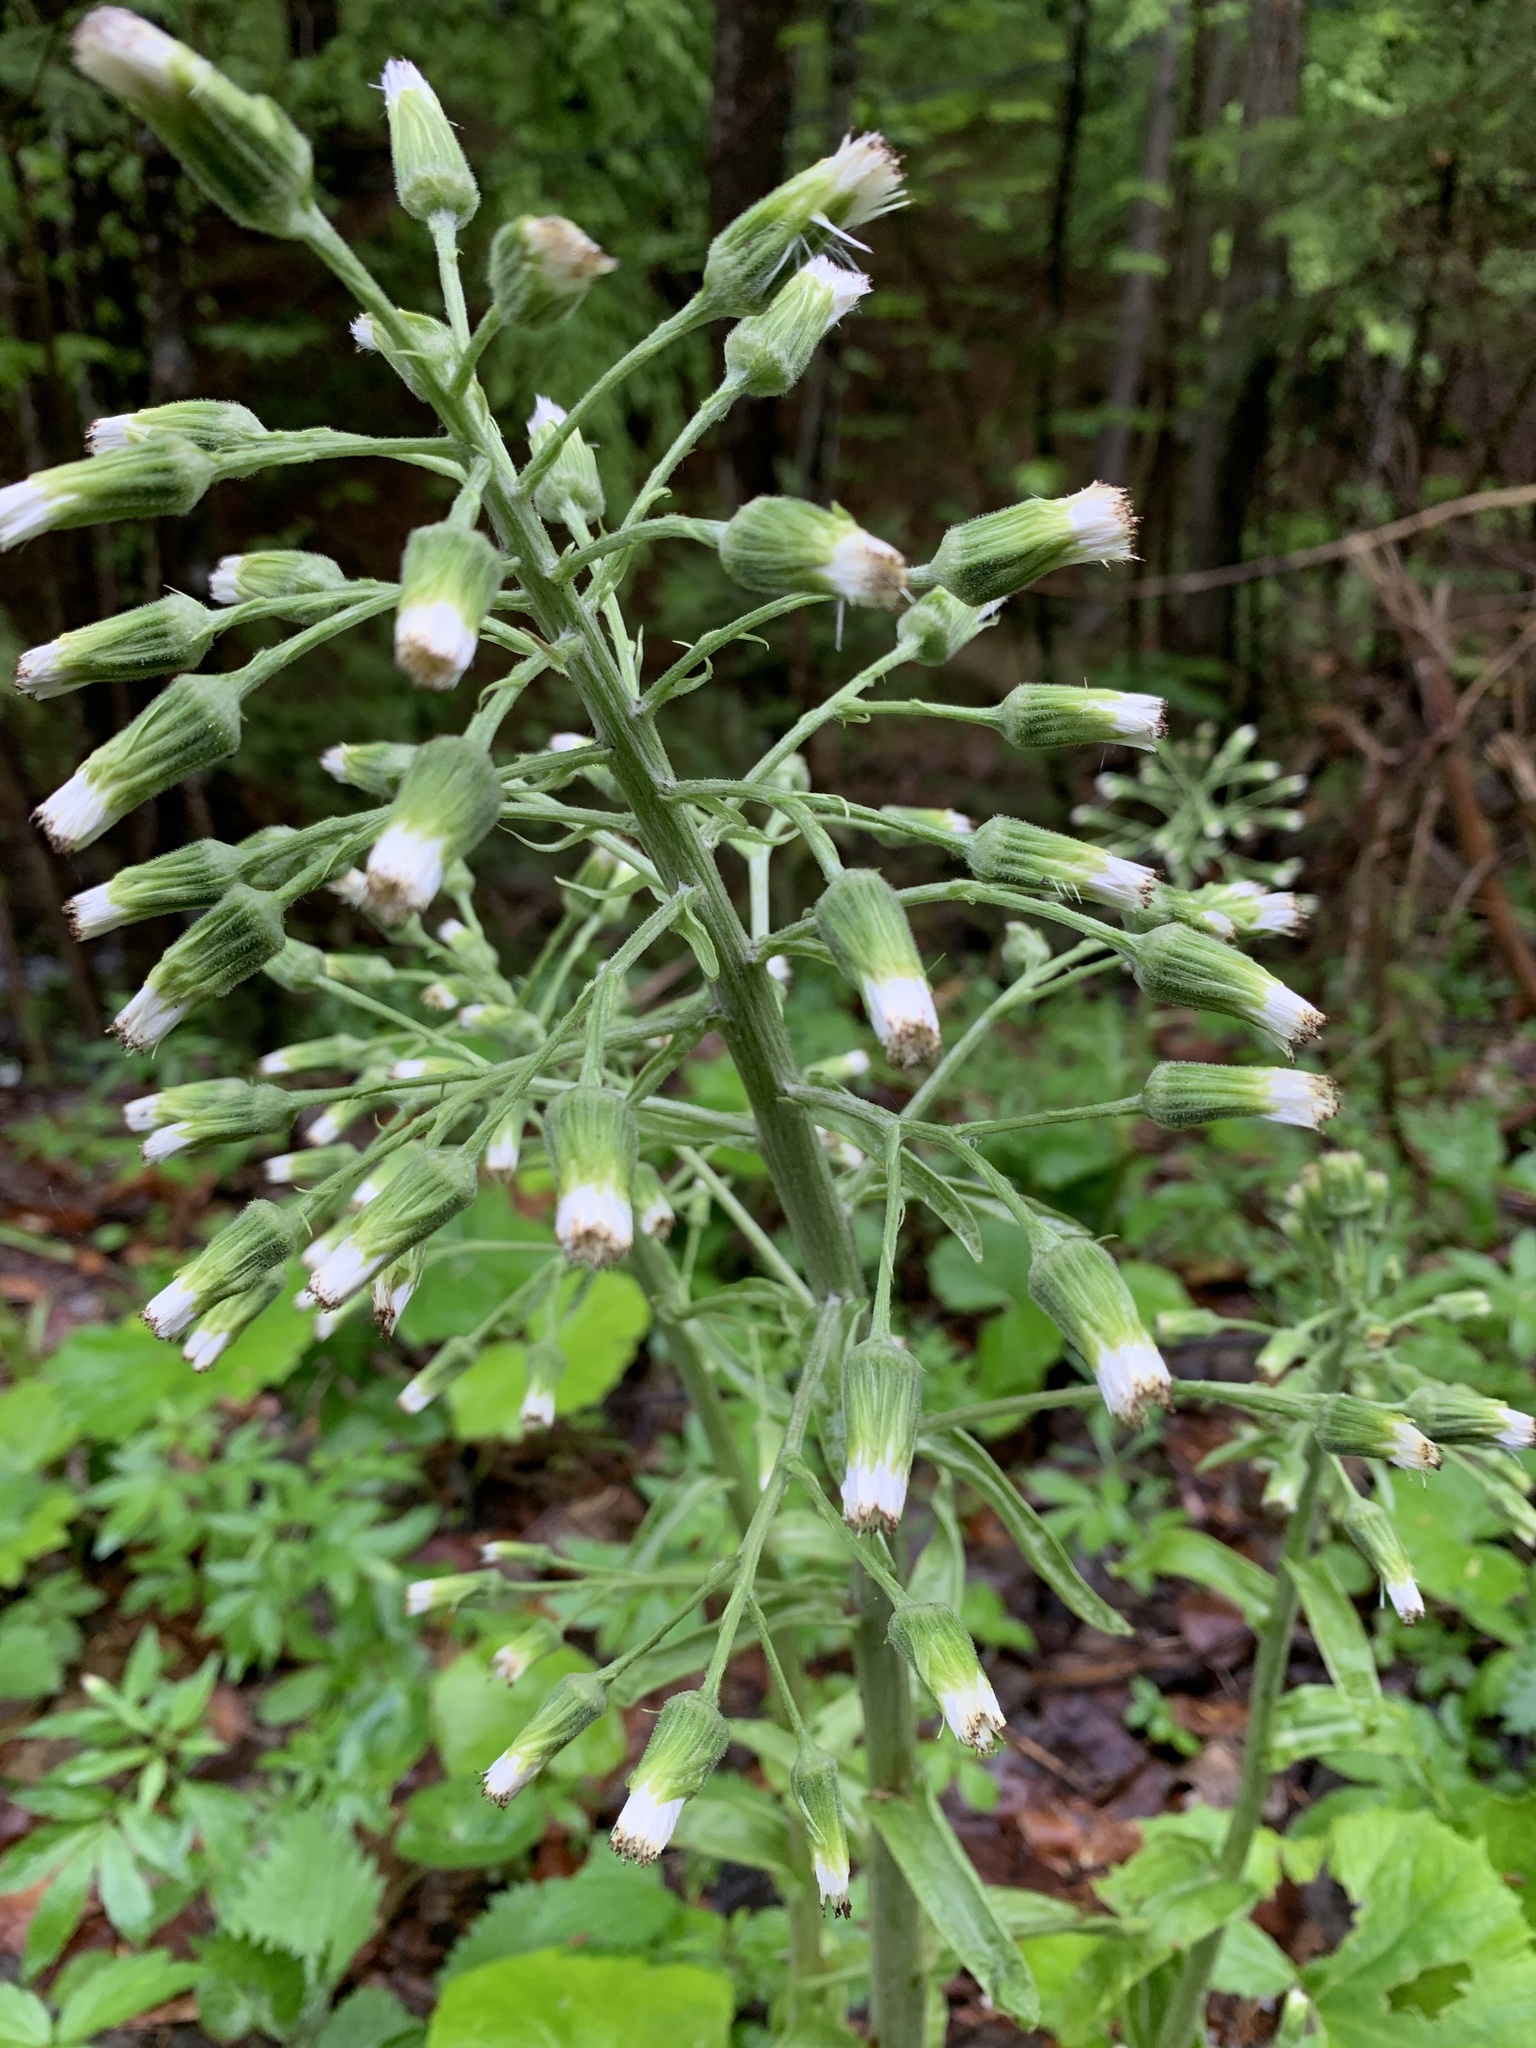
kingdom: Plantae
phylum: Tracheophyta
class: Magnoliopsida
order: Asterales
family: Asteraceae
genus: Petasites
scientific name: Petasites albus
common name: White butterbur
